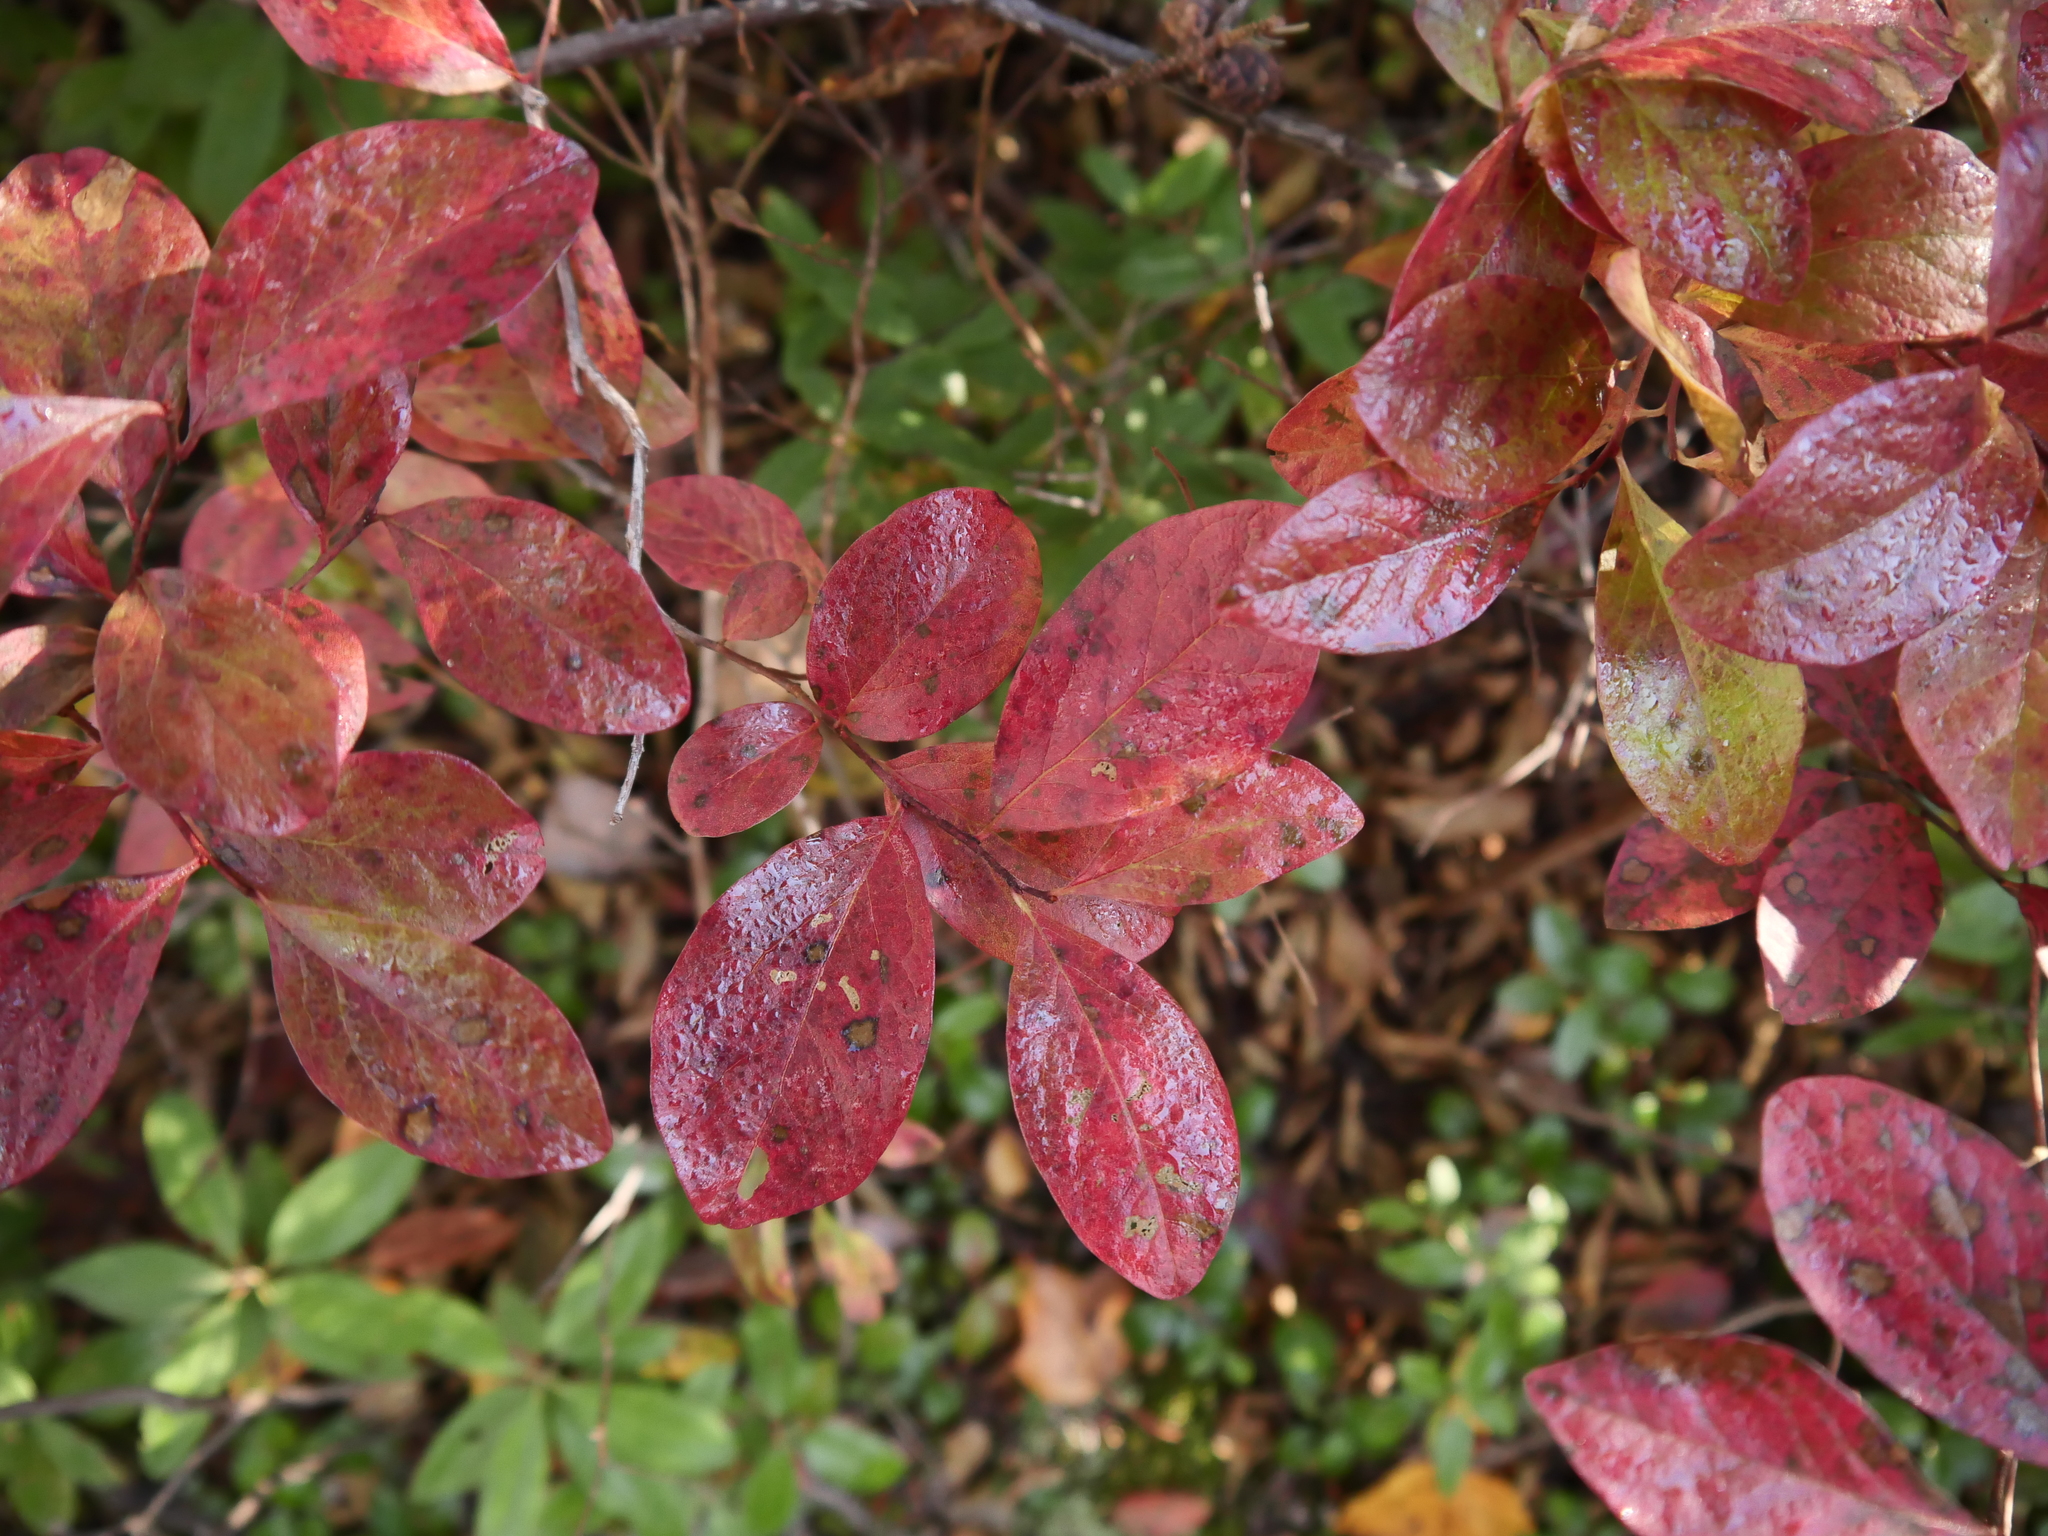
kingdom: Plantae
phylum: Tracheophyta
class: Magnoliopsida
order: Ericales
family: Ericaceae
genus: Gaylussacia
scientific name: Gaylussacia baccata
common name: Black huckleberry
